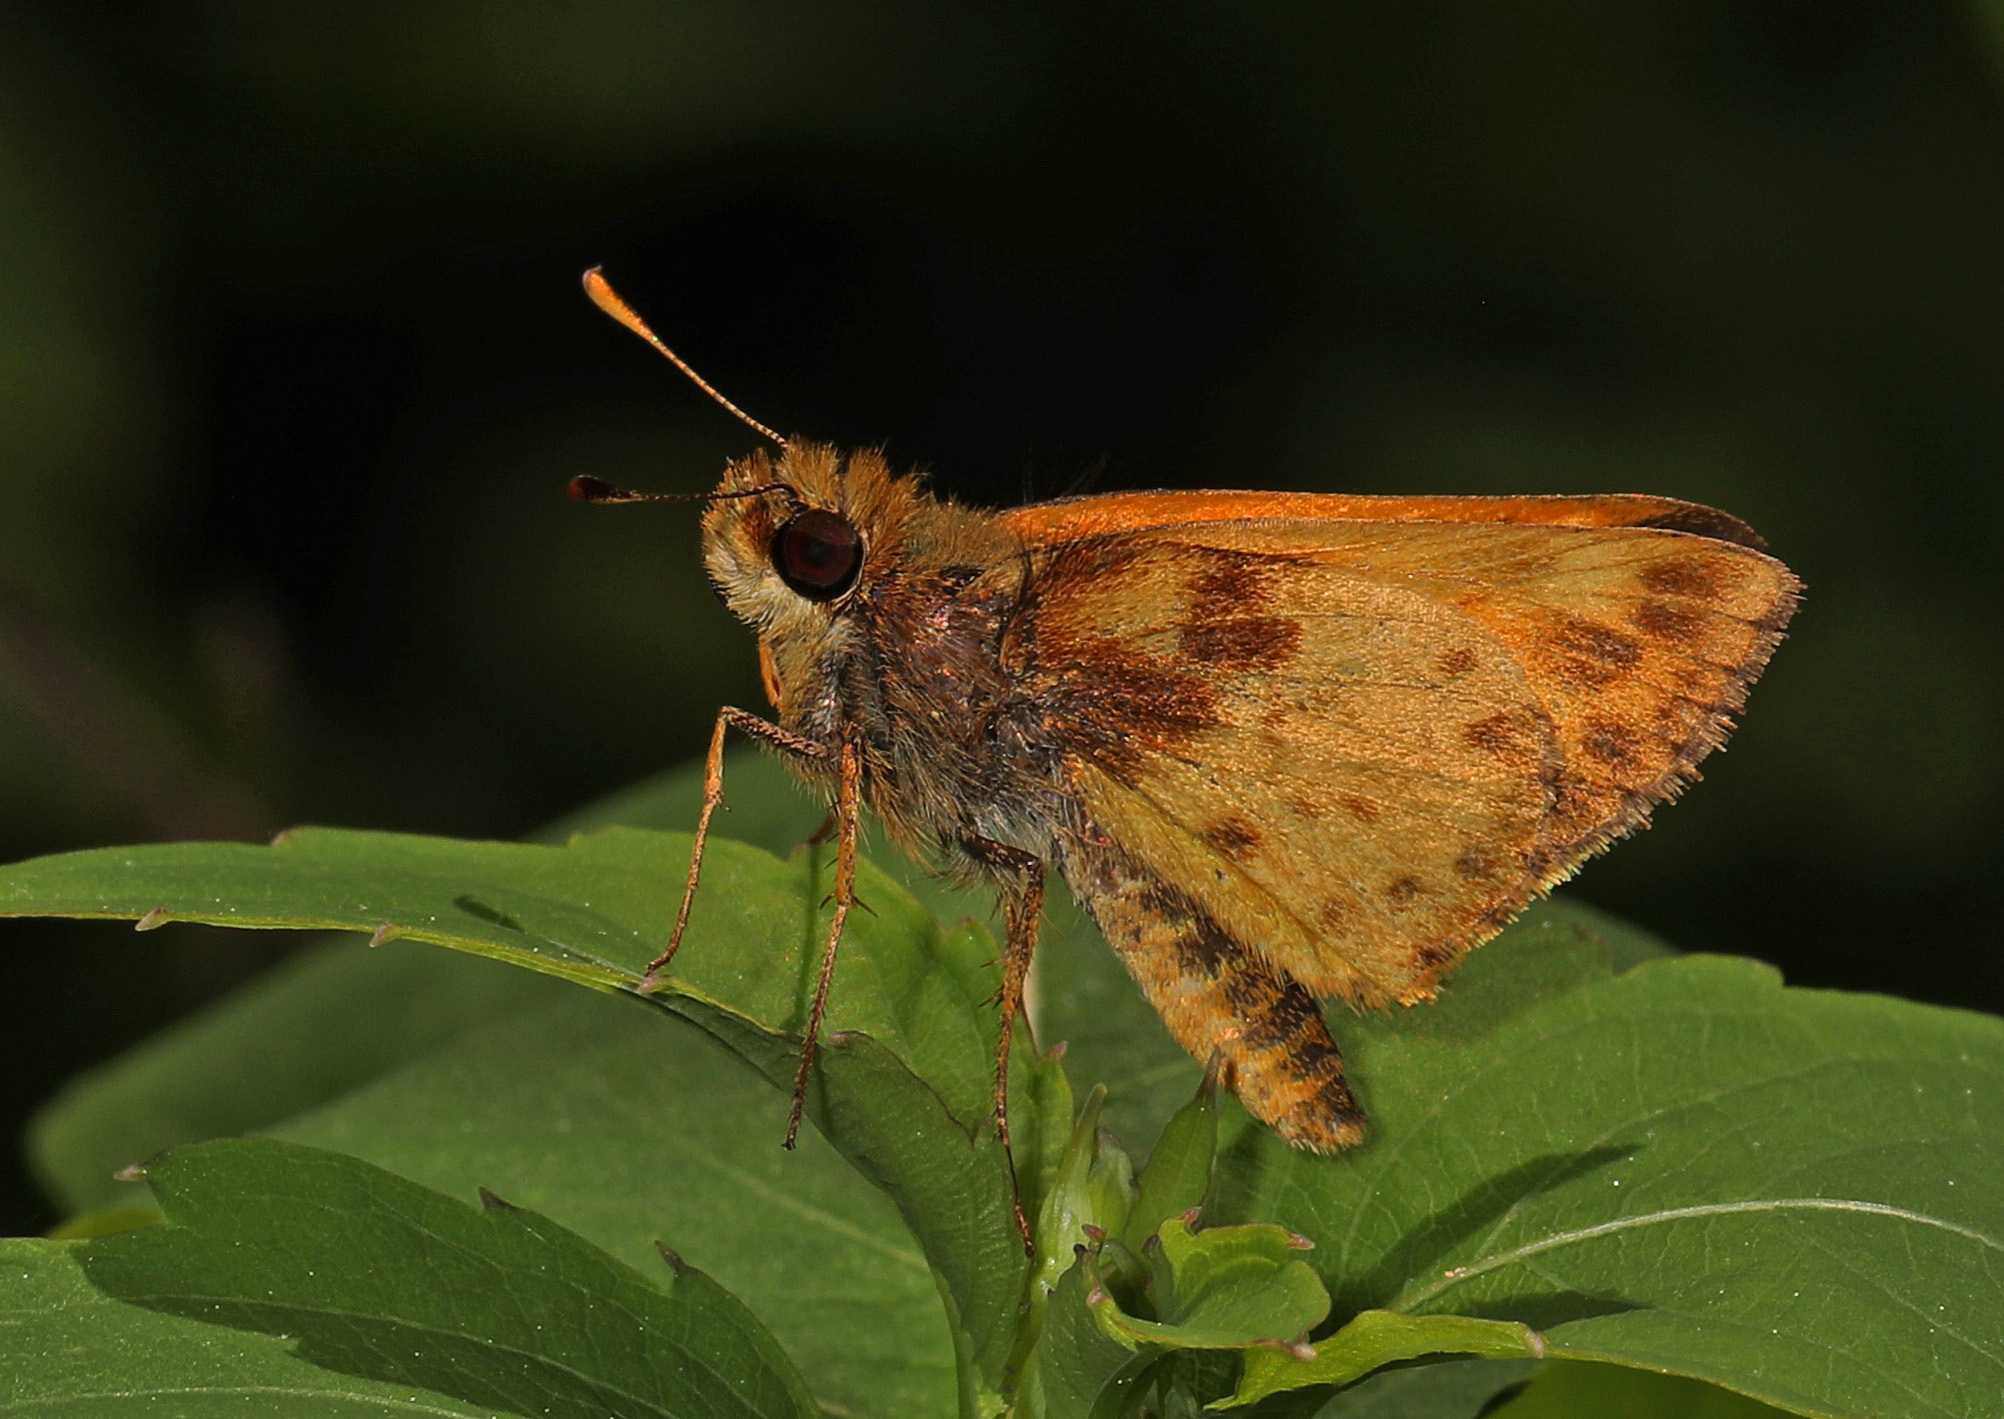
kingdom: Animalia
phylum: Arthropoda
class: Insecta
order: Lepidoptera
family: Hesperiidae
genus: Lon
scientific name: Lon zabulon
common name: Zabulon skipper
